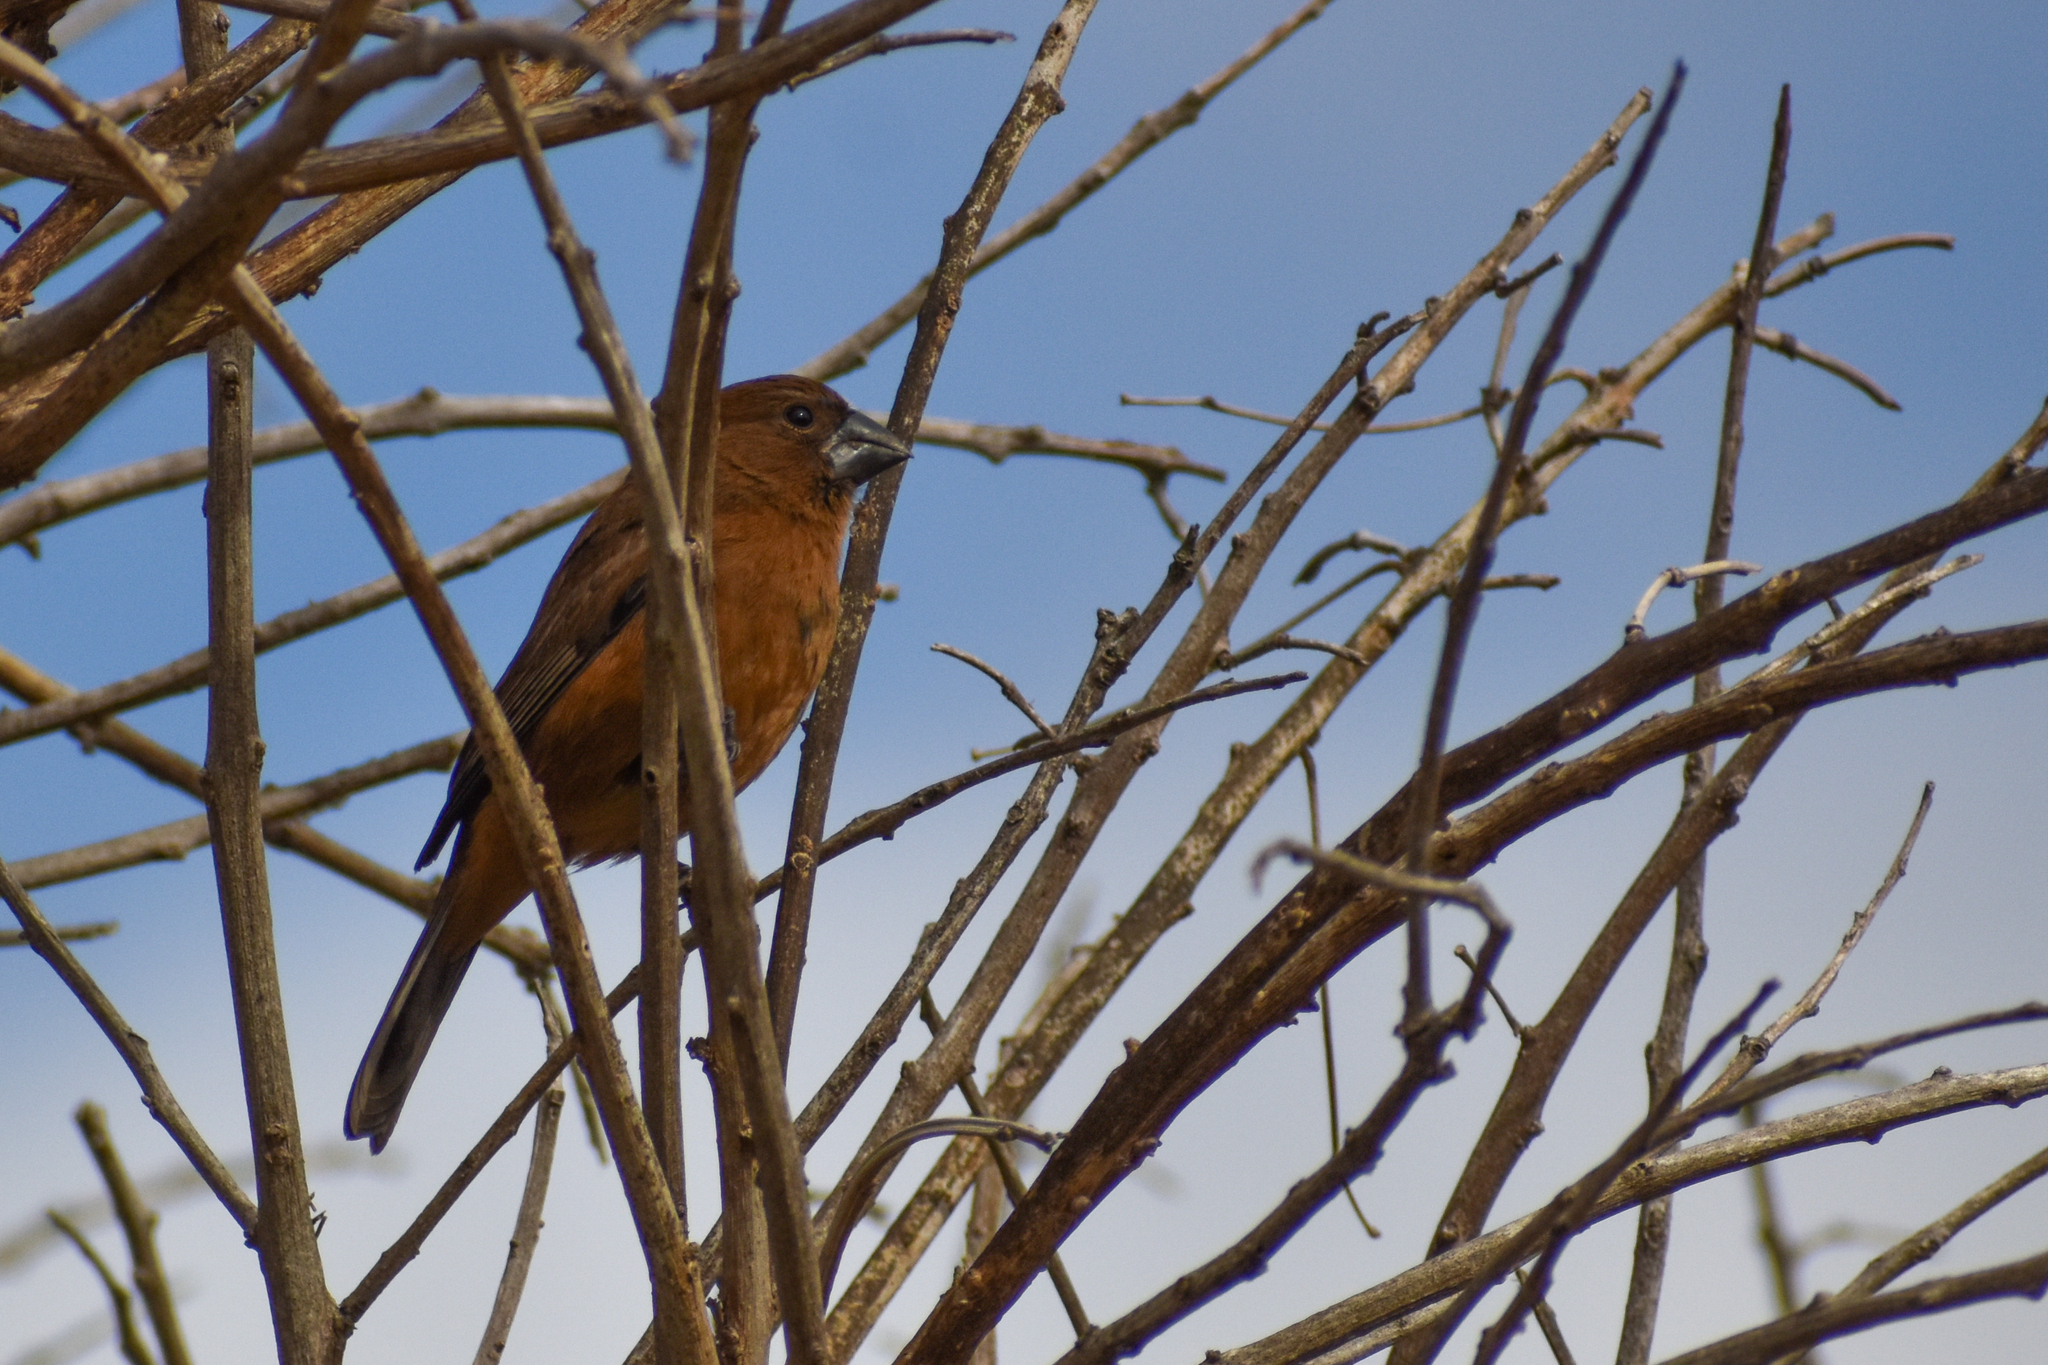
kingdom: Animalia
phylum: Chordata
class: Aves
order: Passeriformes
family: Cardinalidae
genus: Cyanoloxia
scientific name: Cyanoloxia brissonii
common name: Ultramarine grosbeak
